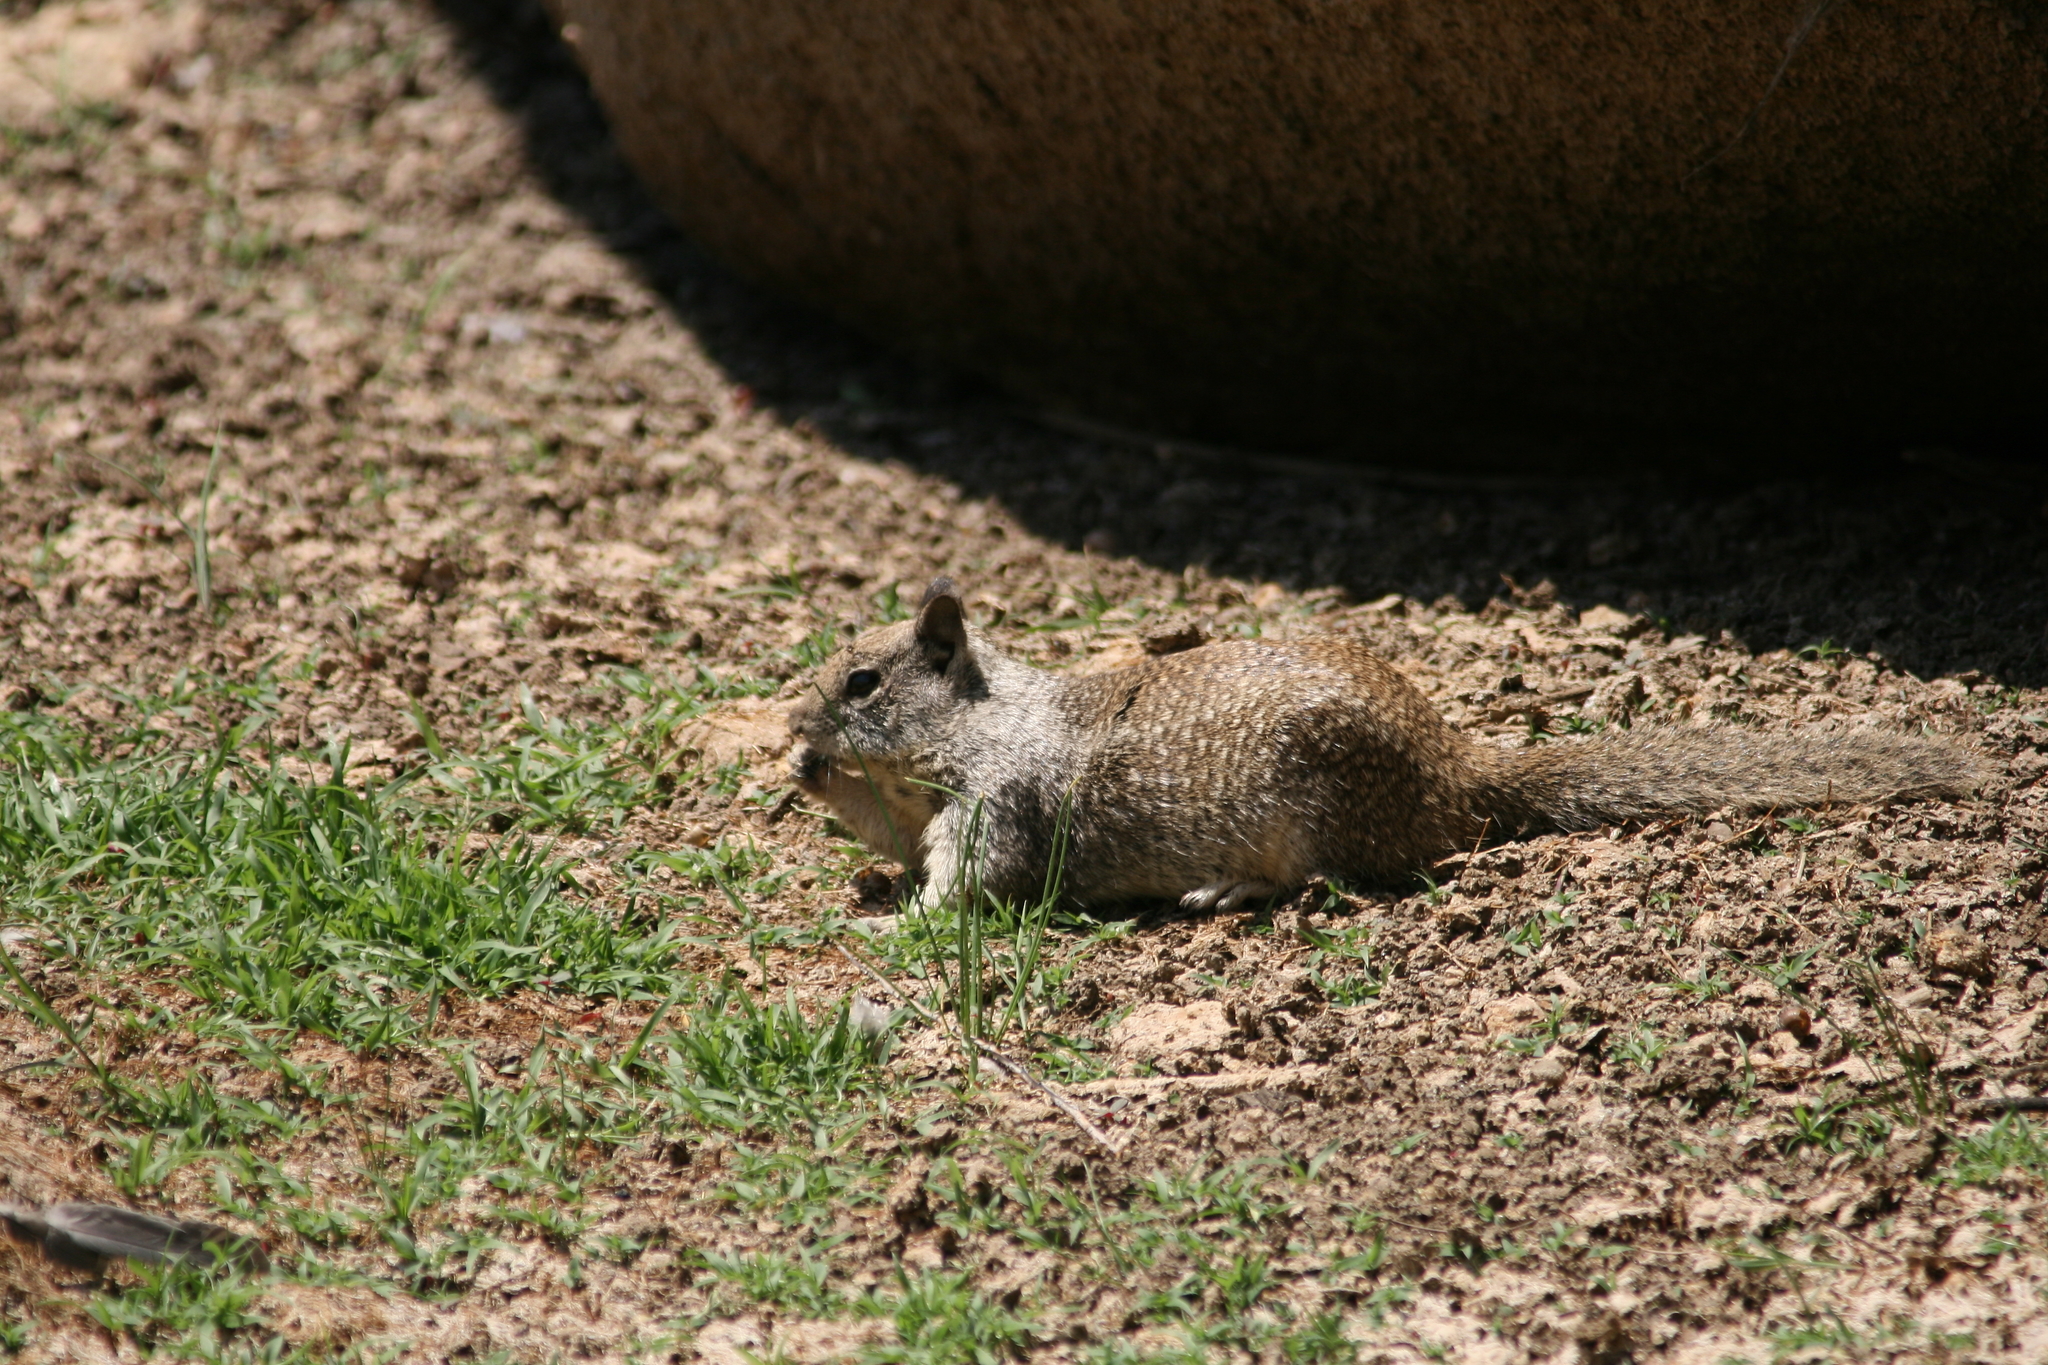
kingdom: Animalia
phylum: Chordata
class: Mammalia
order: Rodentia
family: Sciuridae
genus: Otospermophilus
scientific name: Otospermophilus beecheyi
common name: California ground squirrel
